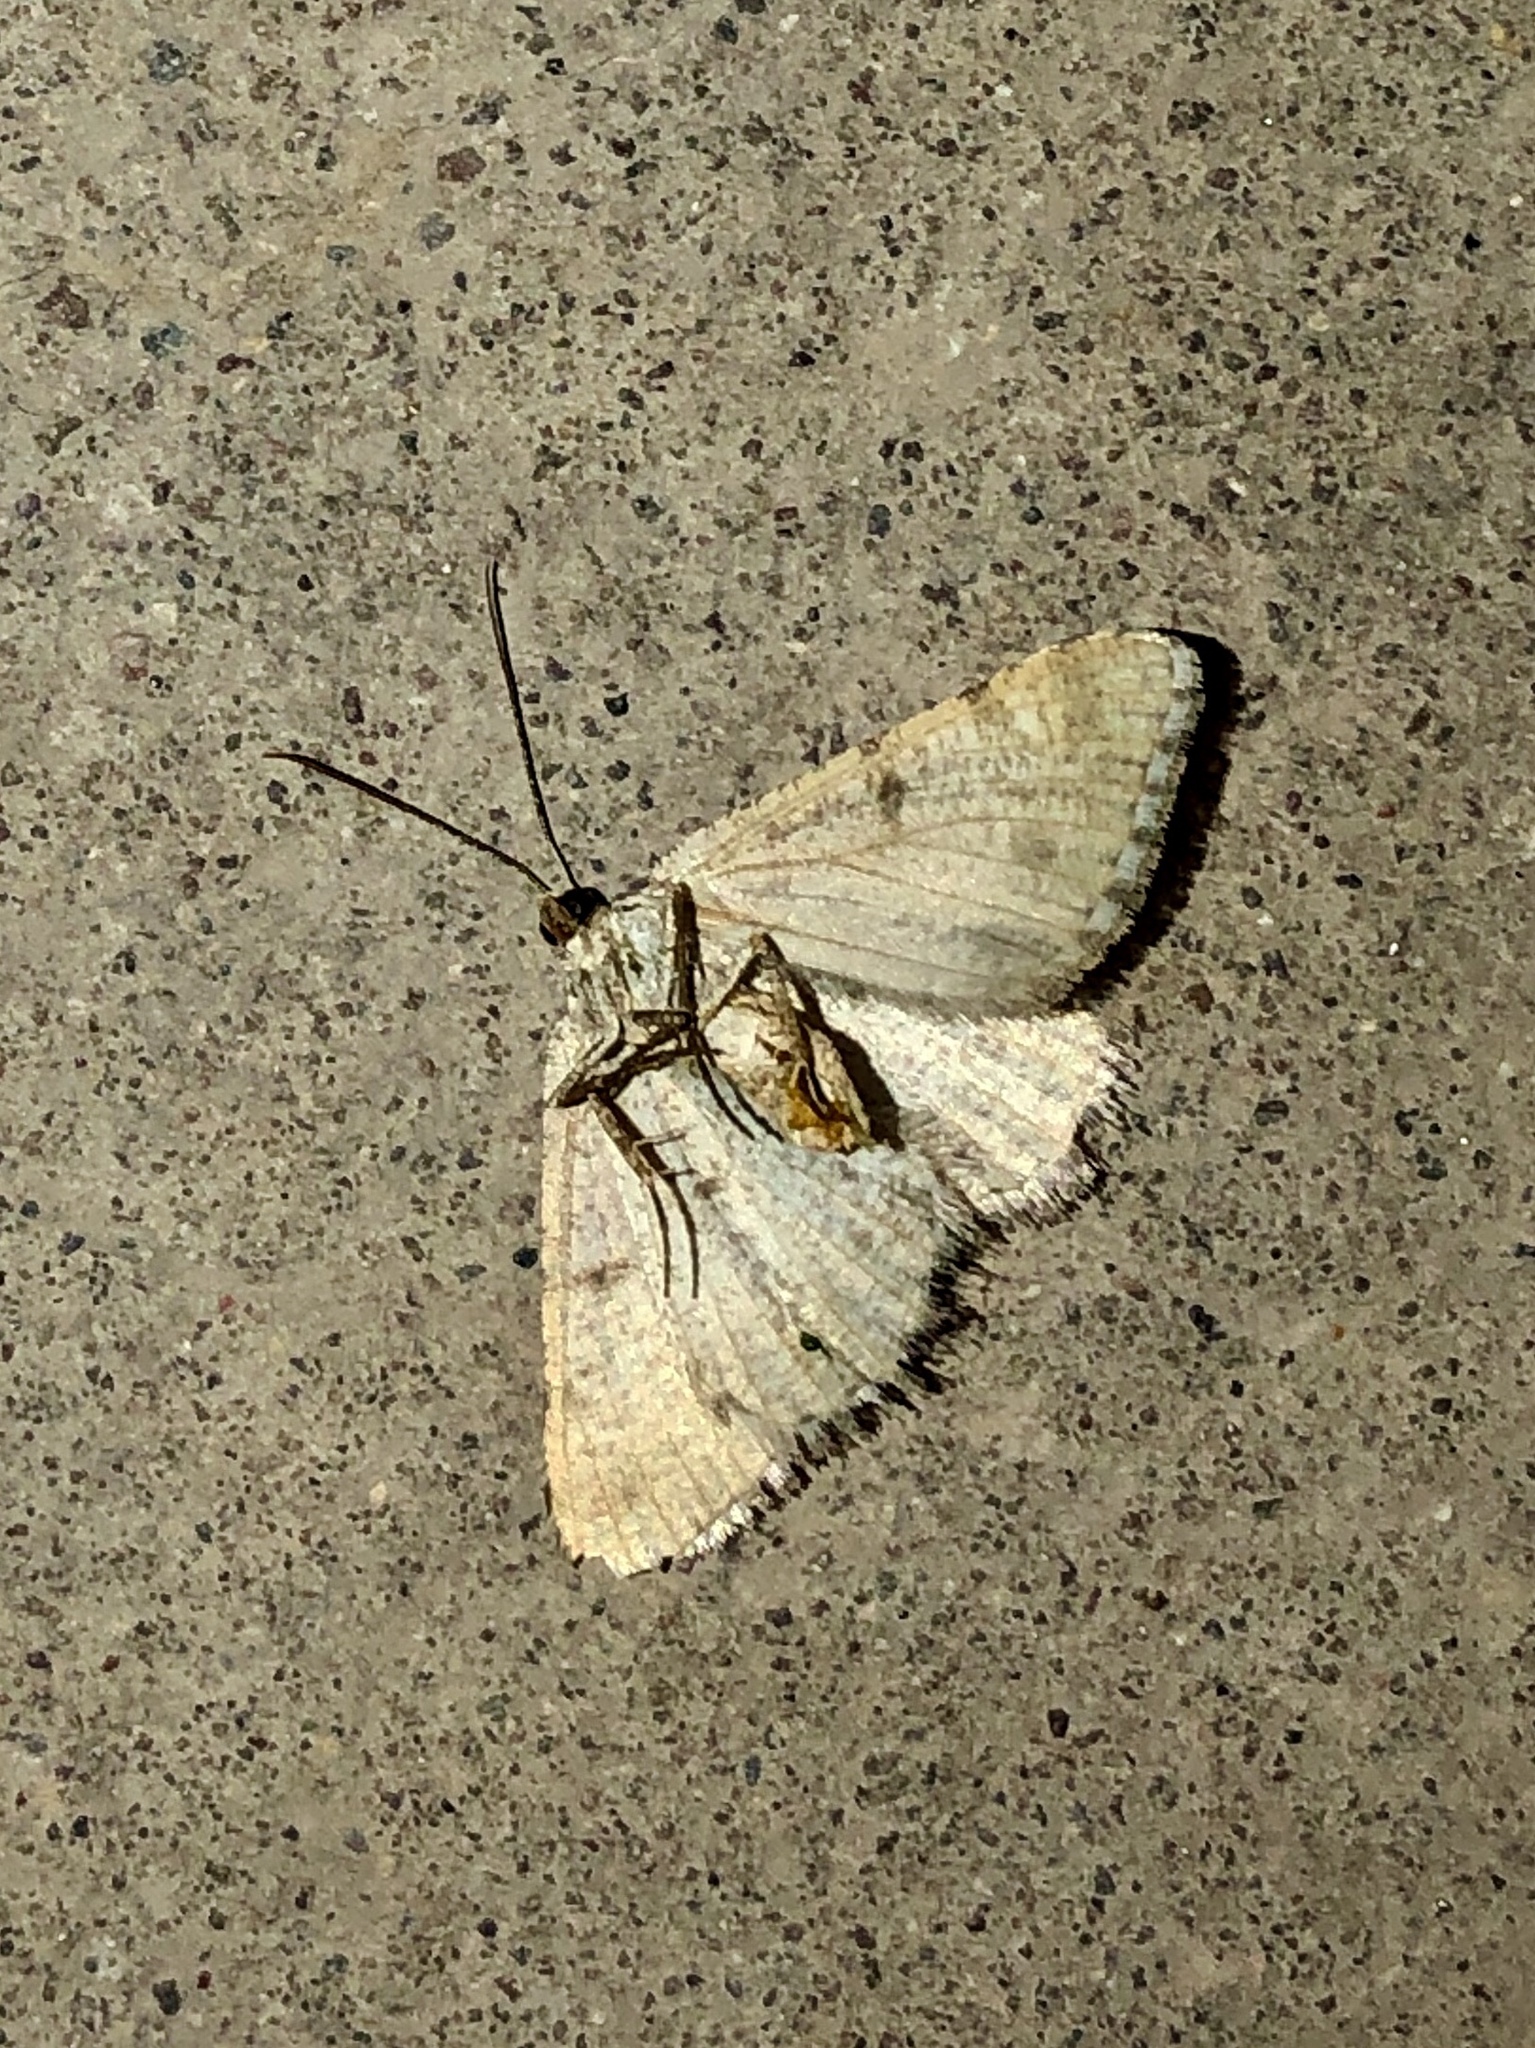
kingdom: Animalia
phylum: Arthropoda
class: Insecta
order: Lepidoptera
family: Geometridae
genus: Digrammia
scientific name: Digrammia colorata
